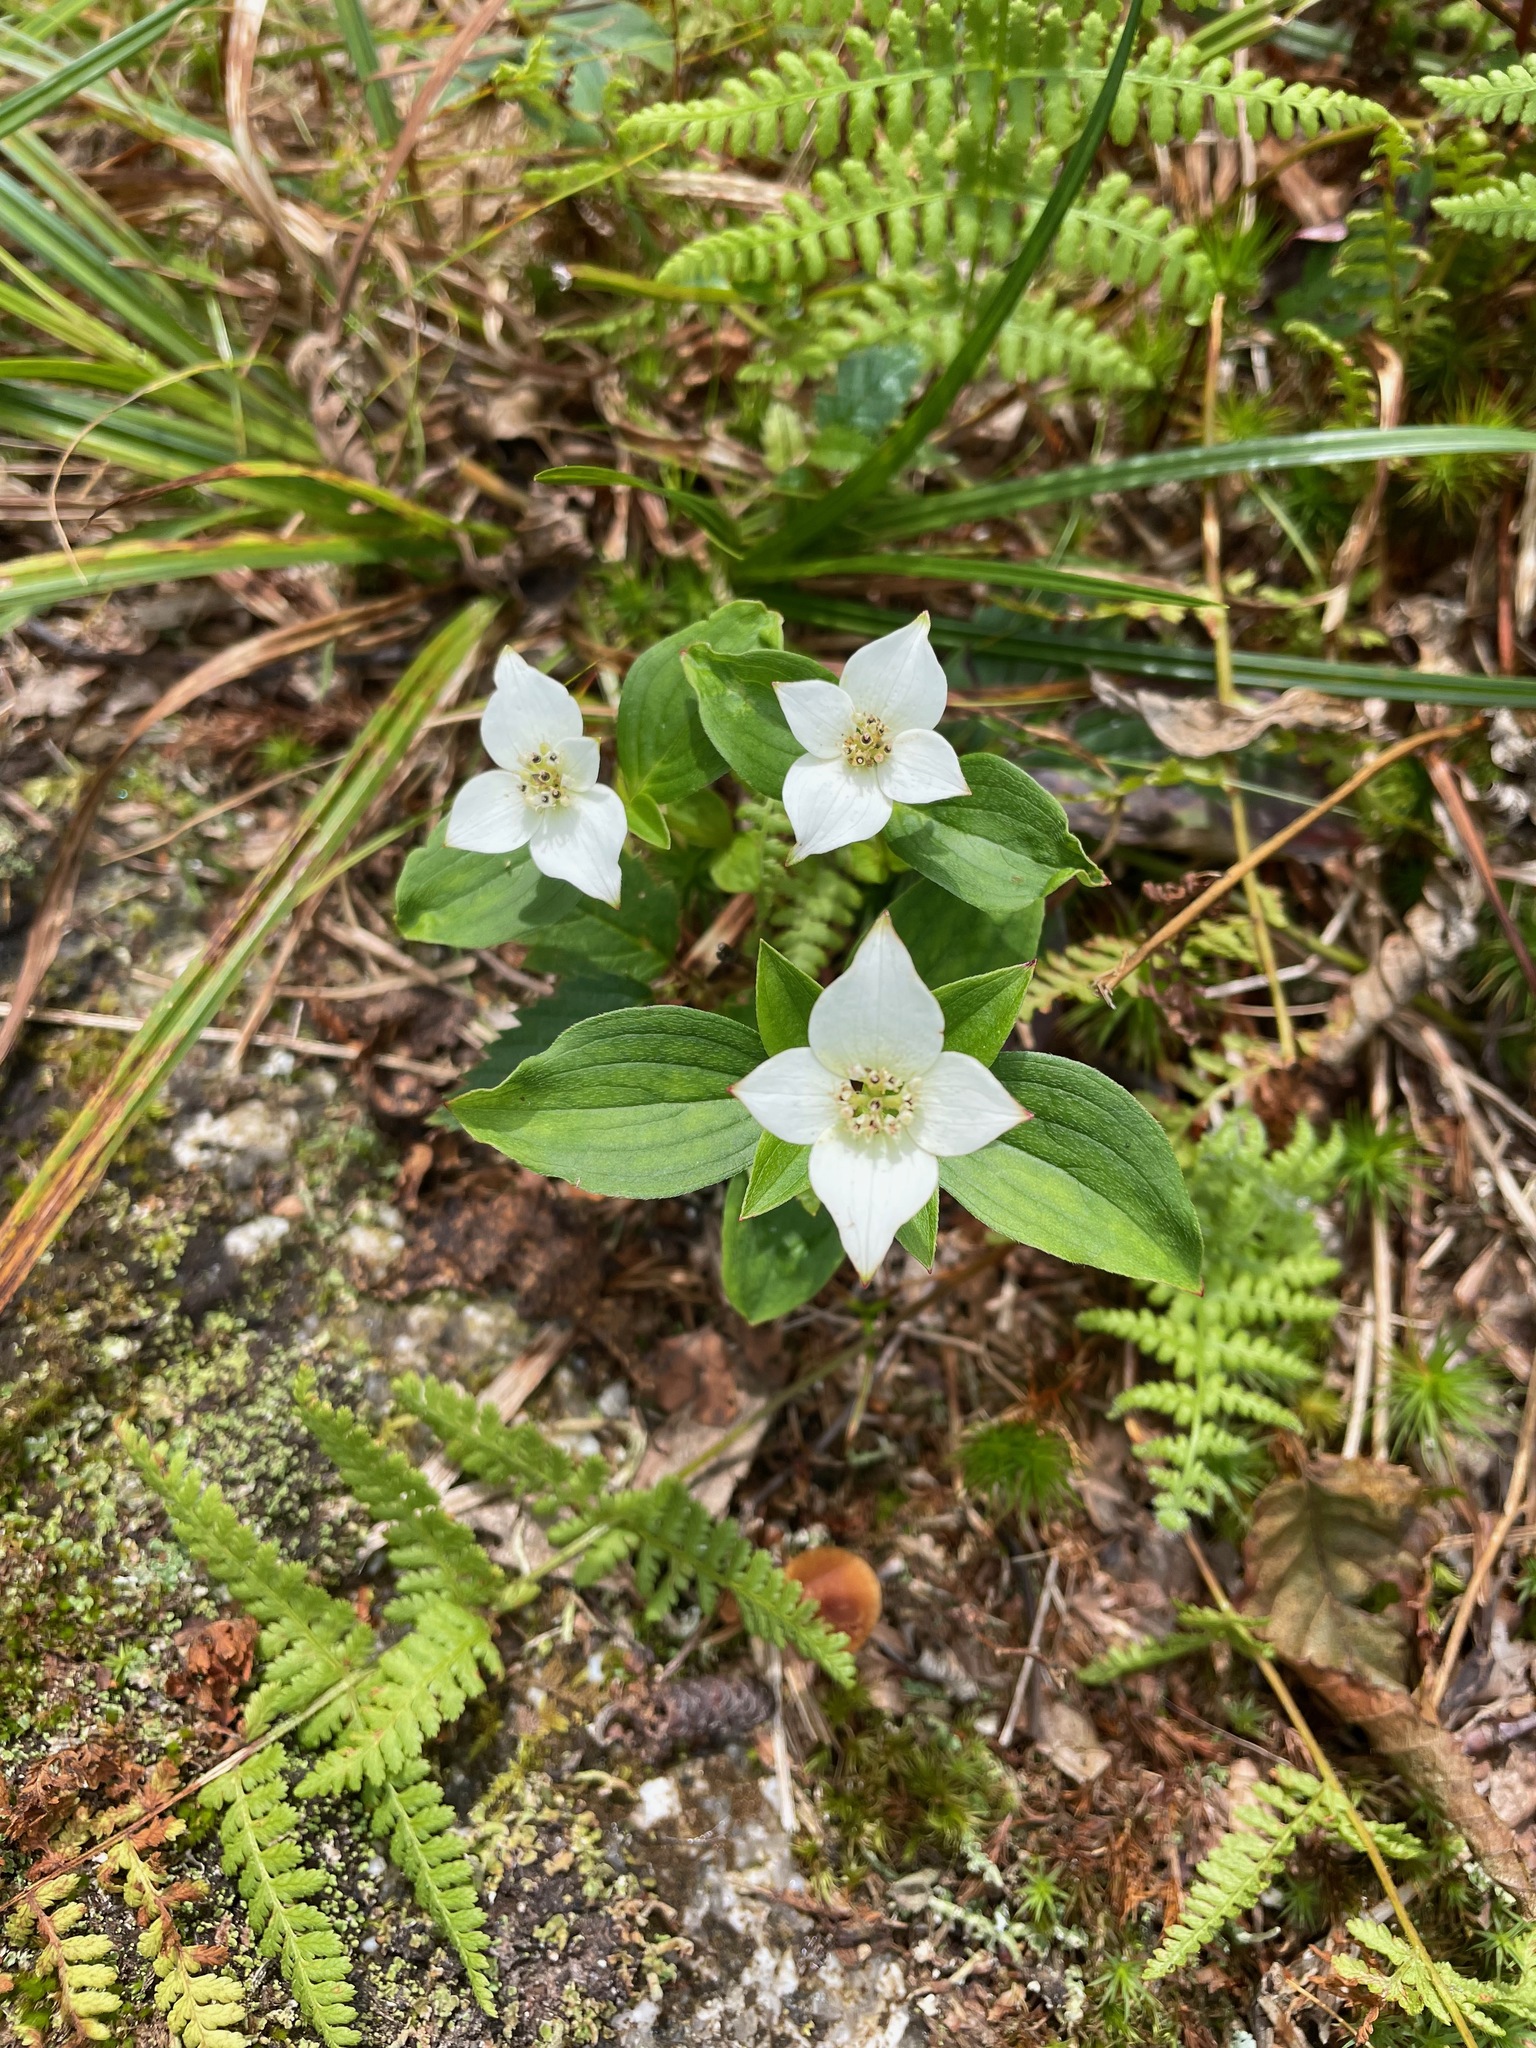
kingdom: Plantae
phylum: Tracheophyta
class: Magnoliopsida
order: Cornales
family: Cornaceae
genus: Cornus
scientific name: Cornus canadensis
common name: Creeping dogwood
